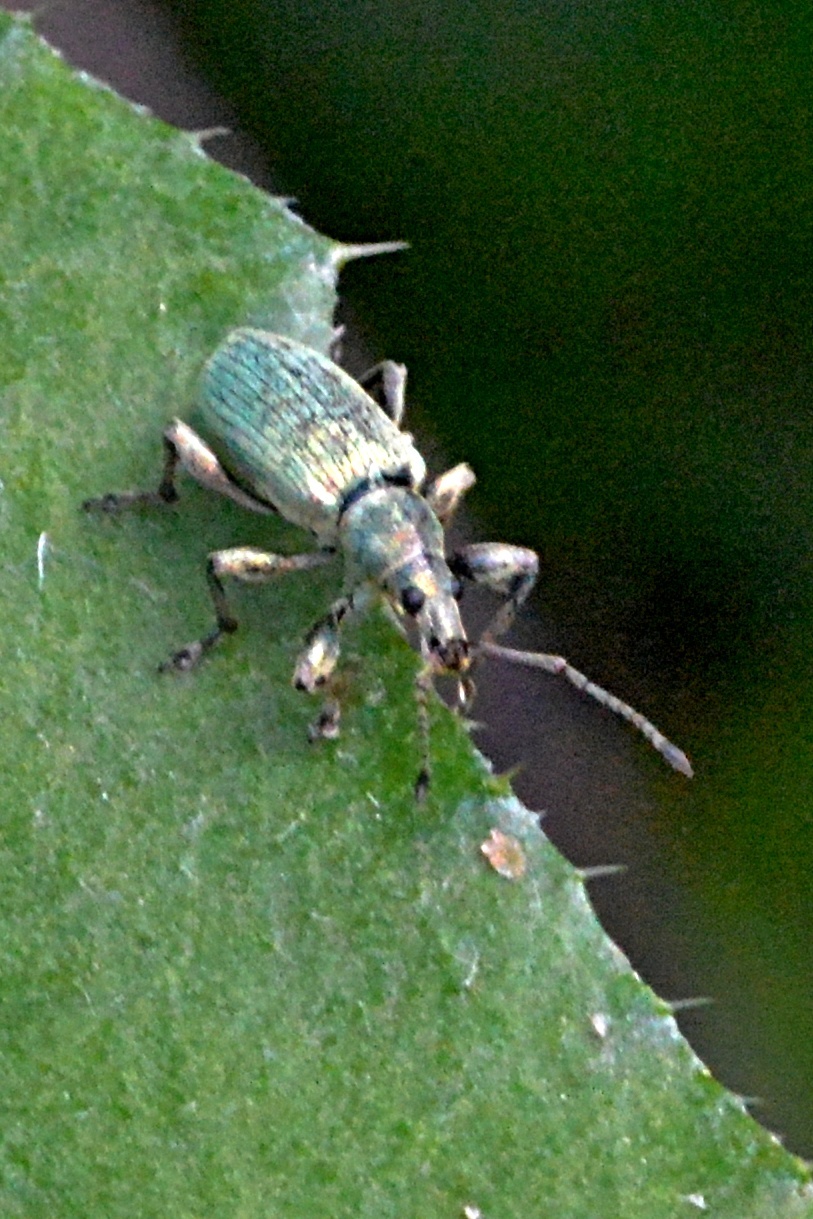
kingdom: Animalia
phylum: Arthropoda
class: Insecta
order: Coleoptera
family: Curculionidae
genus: Phyllobius
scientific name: Phyllobius pomaceus
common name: Green nettle weevil
